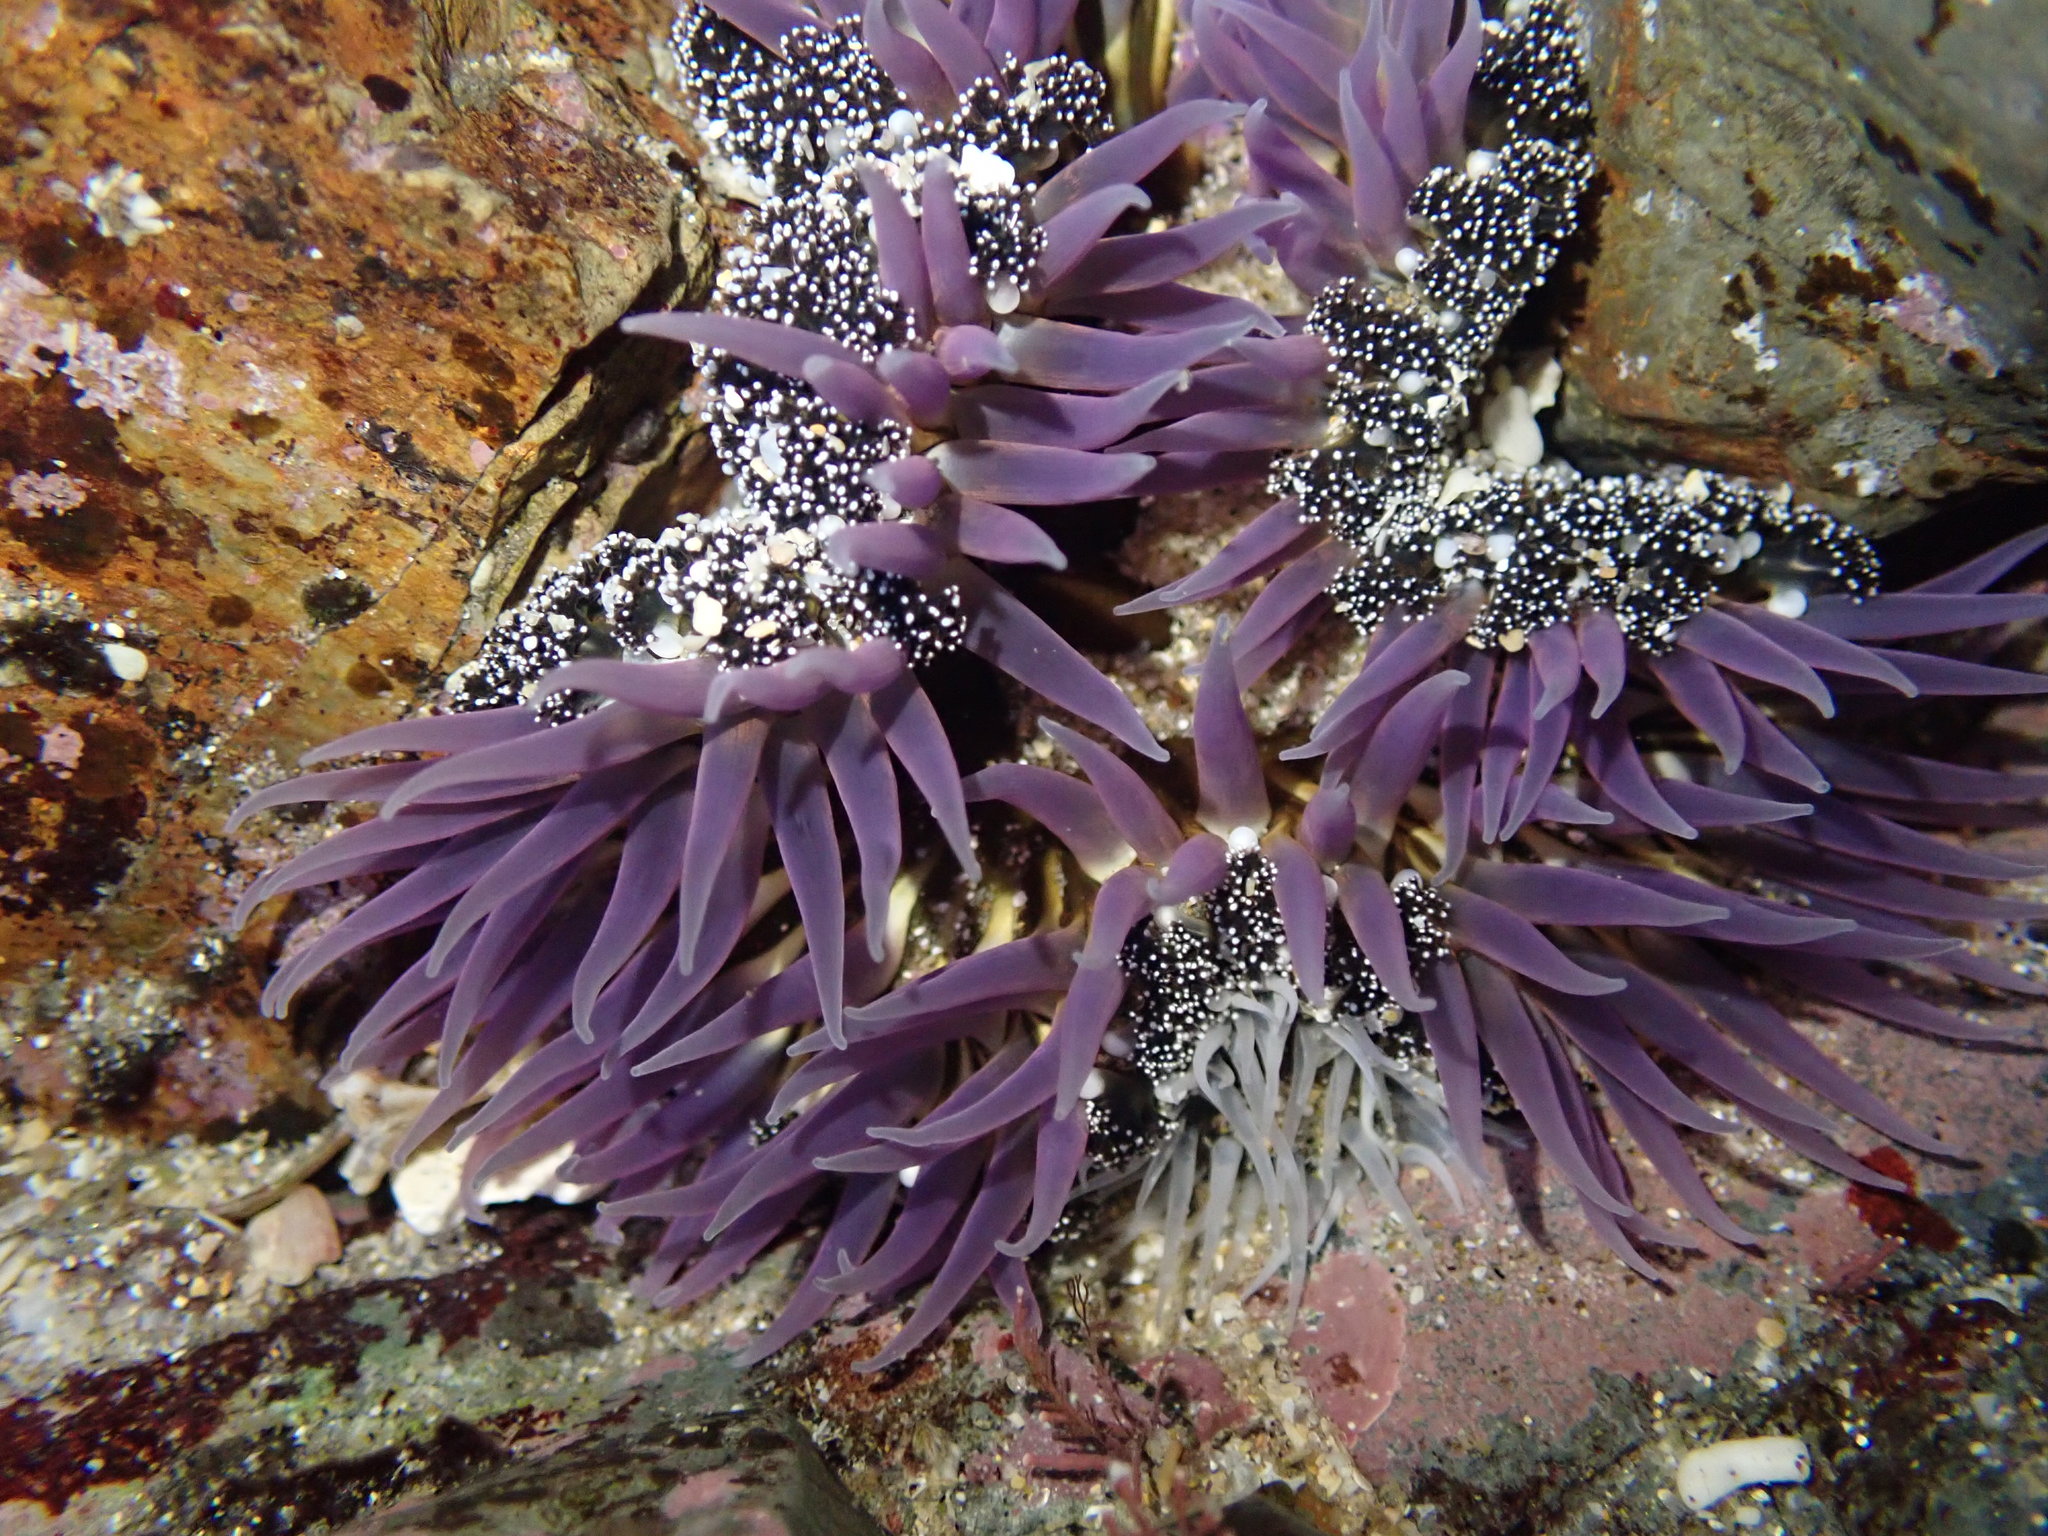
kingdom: Animalia
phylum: Cnidaria
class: Anthozoa
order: Actiniaria
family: Actiniidae
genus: Oulactis
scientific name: Oulactis magna
